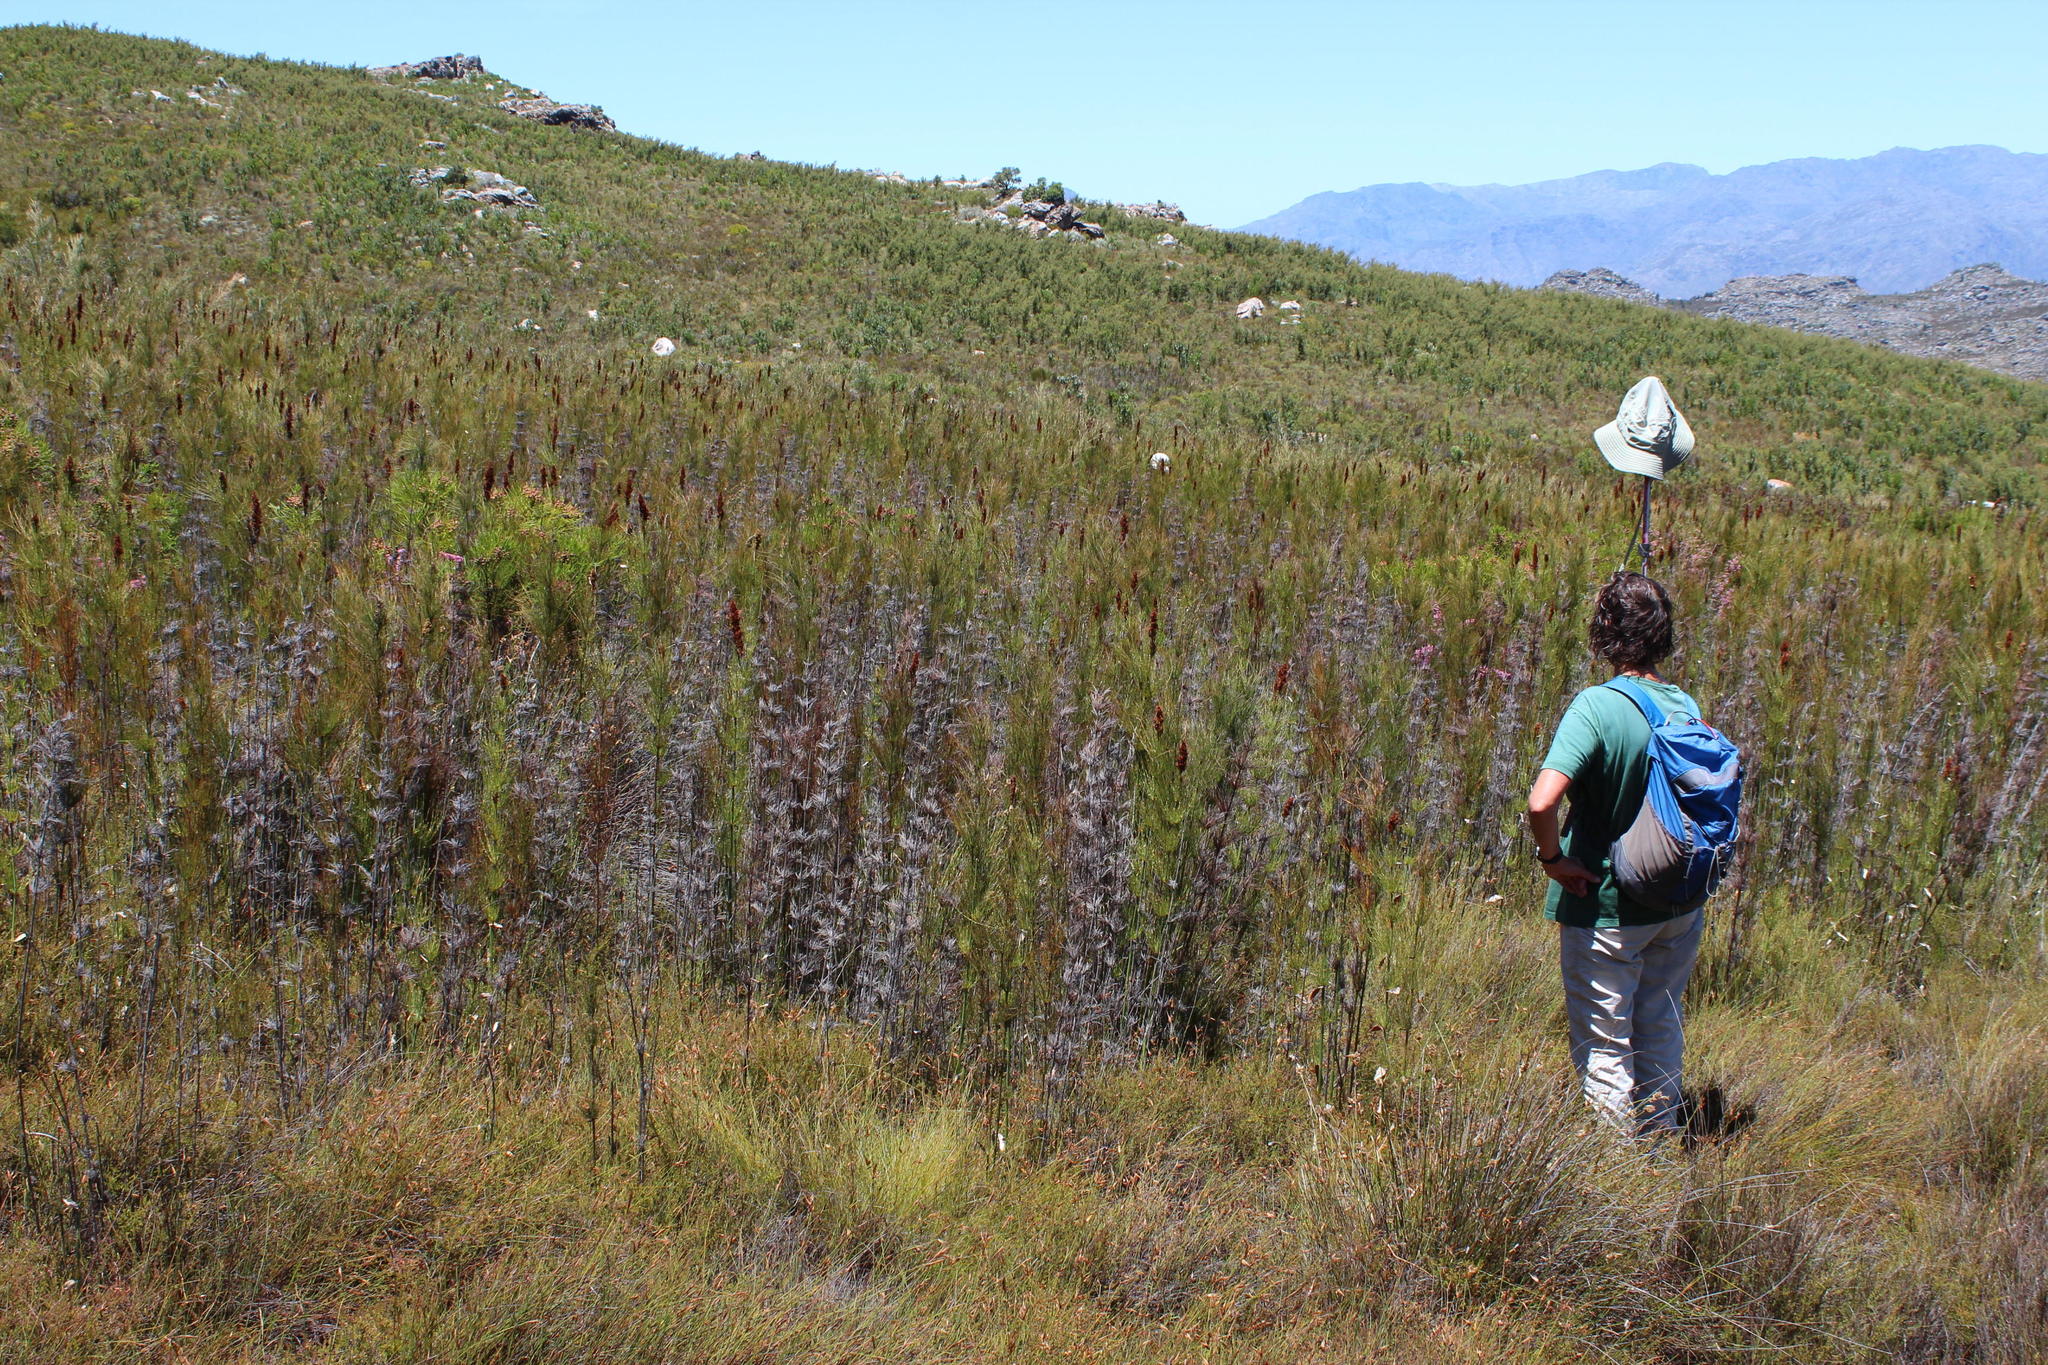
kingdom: Plantae
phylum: Tracheophyta
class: Liliopsida
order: Poales
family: Restionaceae
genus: Elegia
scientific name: Elegia capensis
